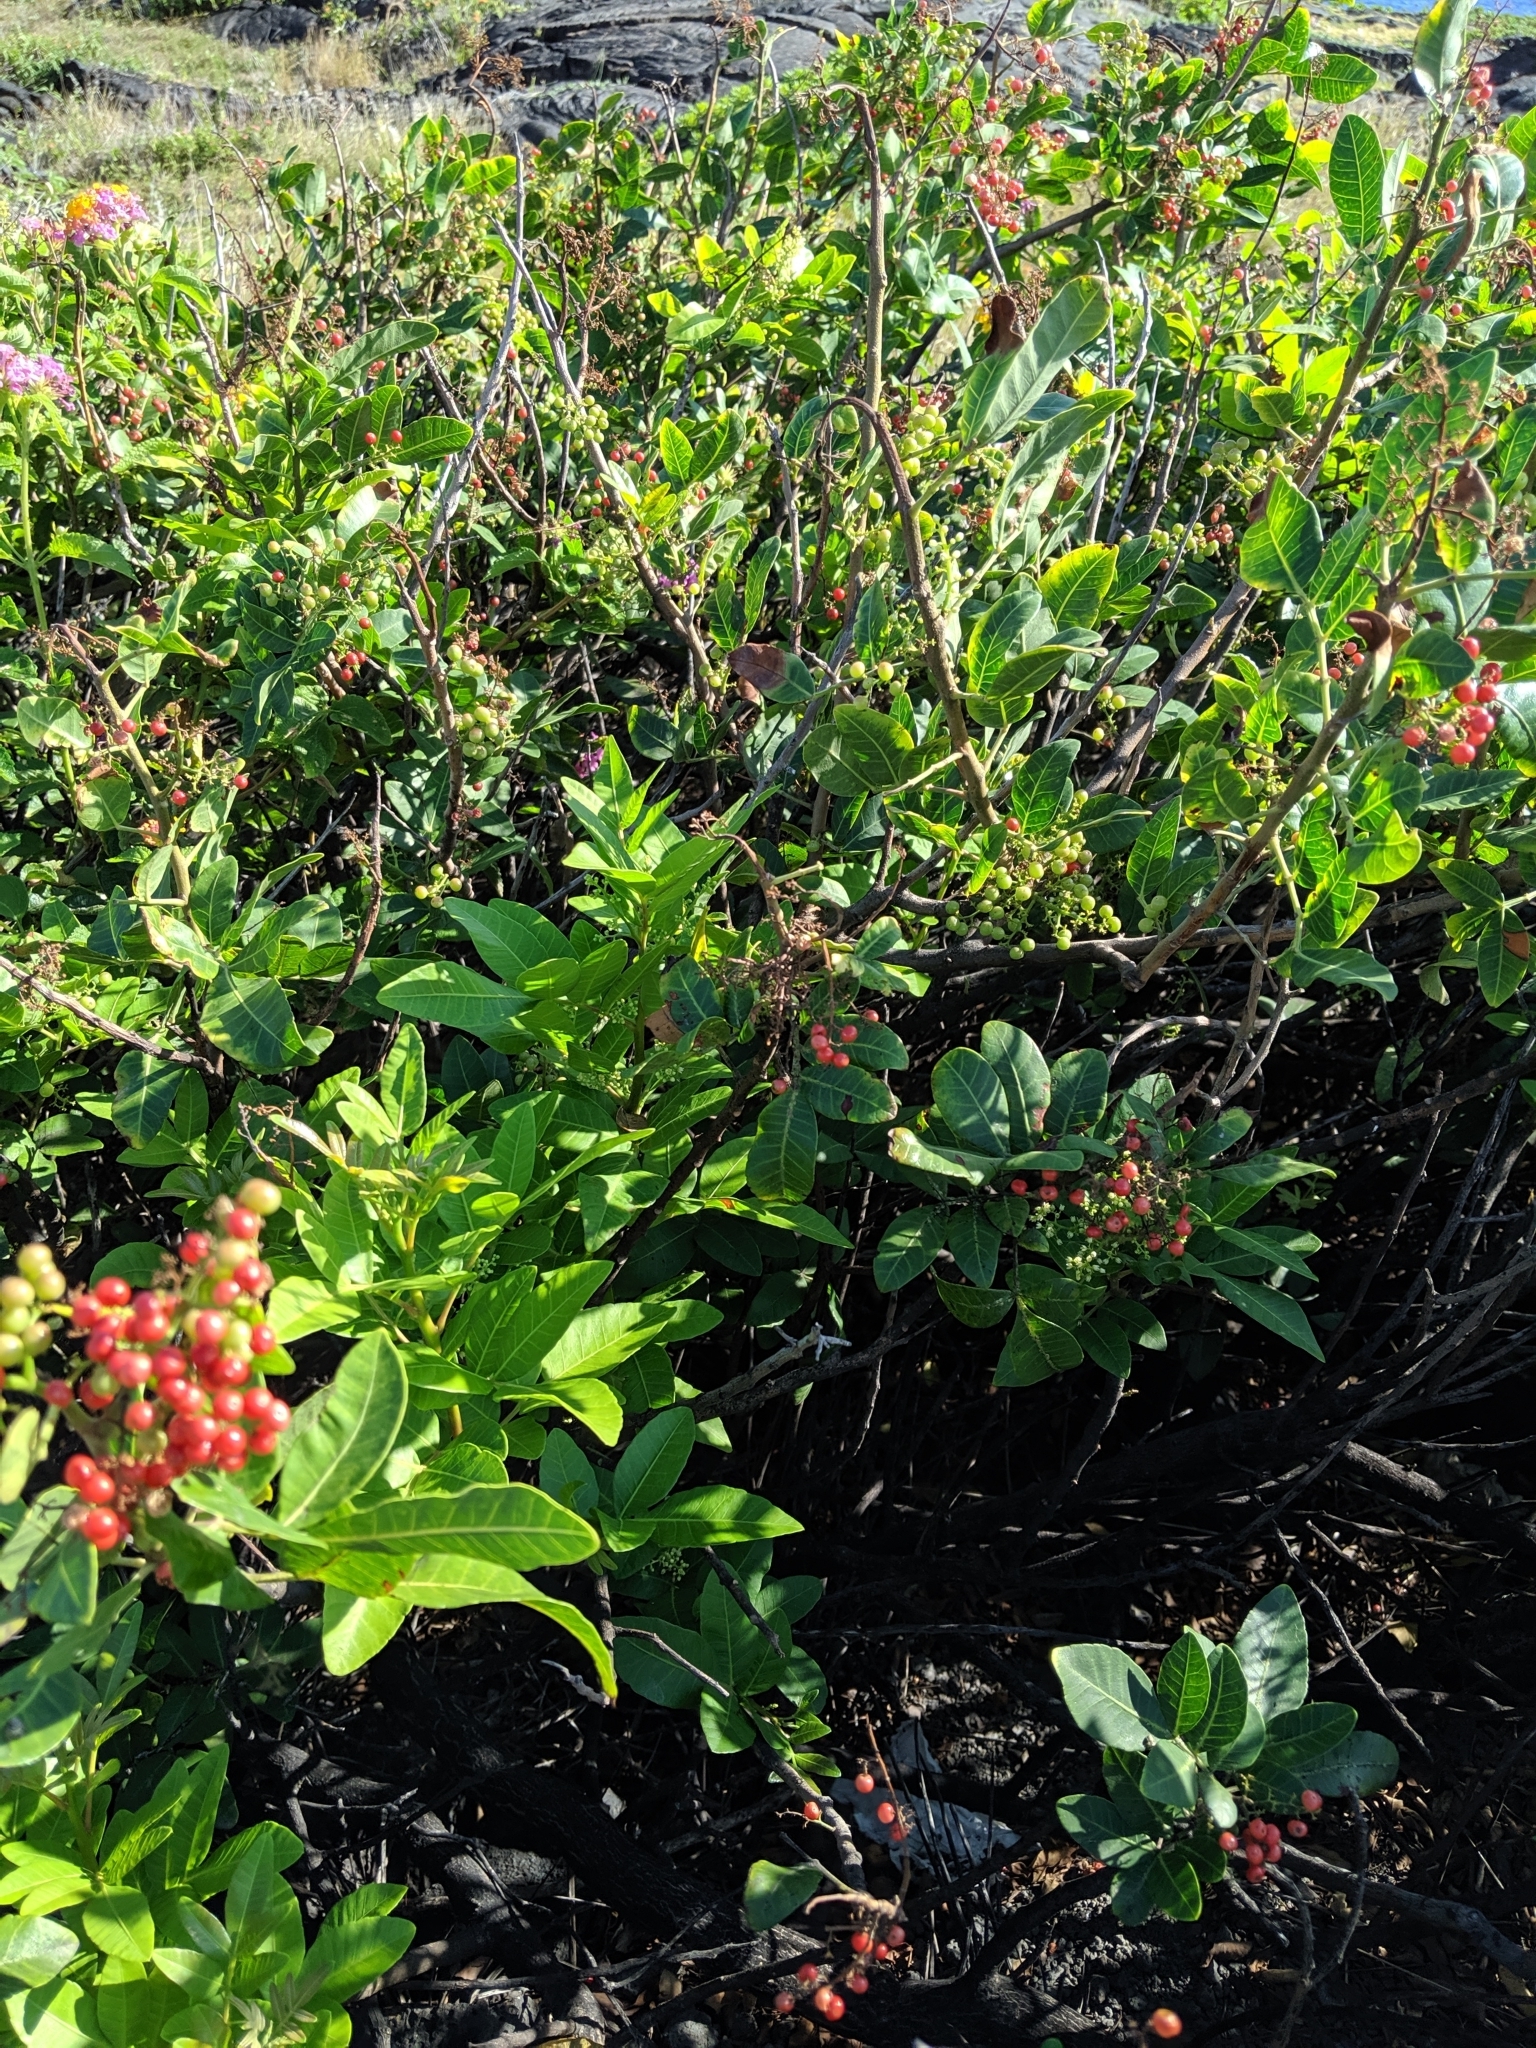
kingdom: Plantae
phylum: Tracheophyta
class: Magnoliopsida
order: Sapindales
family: Anacardiaceae
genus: Schinus
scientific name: Schinus terebinthifolia
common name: Brazilian peppertree
